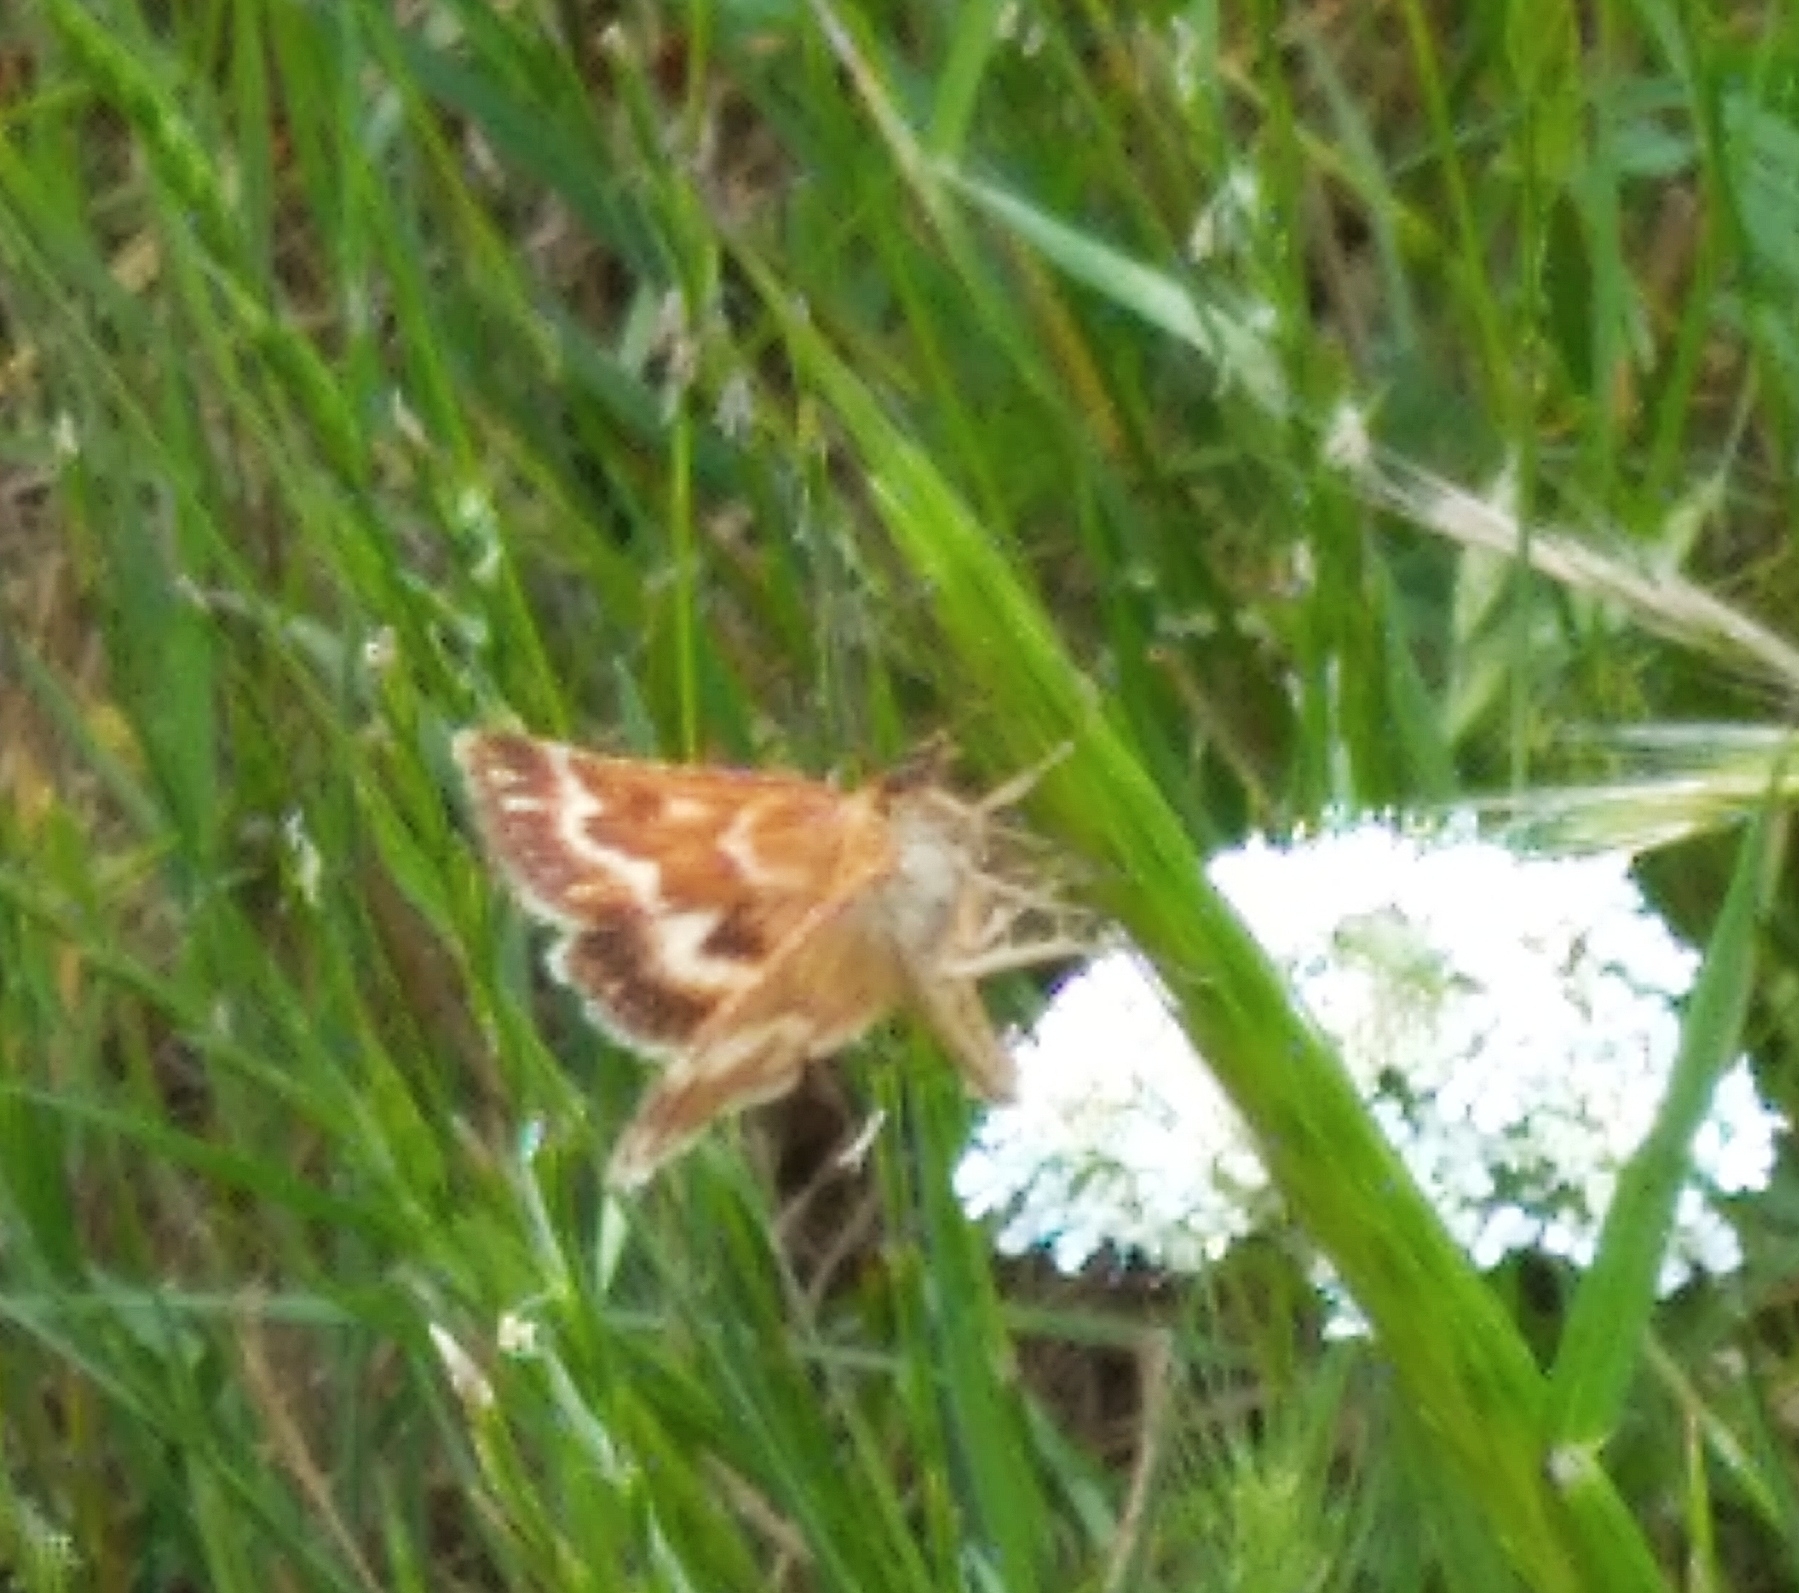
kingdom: Animalia
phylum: Arthropoda
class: Insecta
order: Lepidoptera
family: Pyralidae
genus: Synaphe
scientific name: Synaphe moldavica
